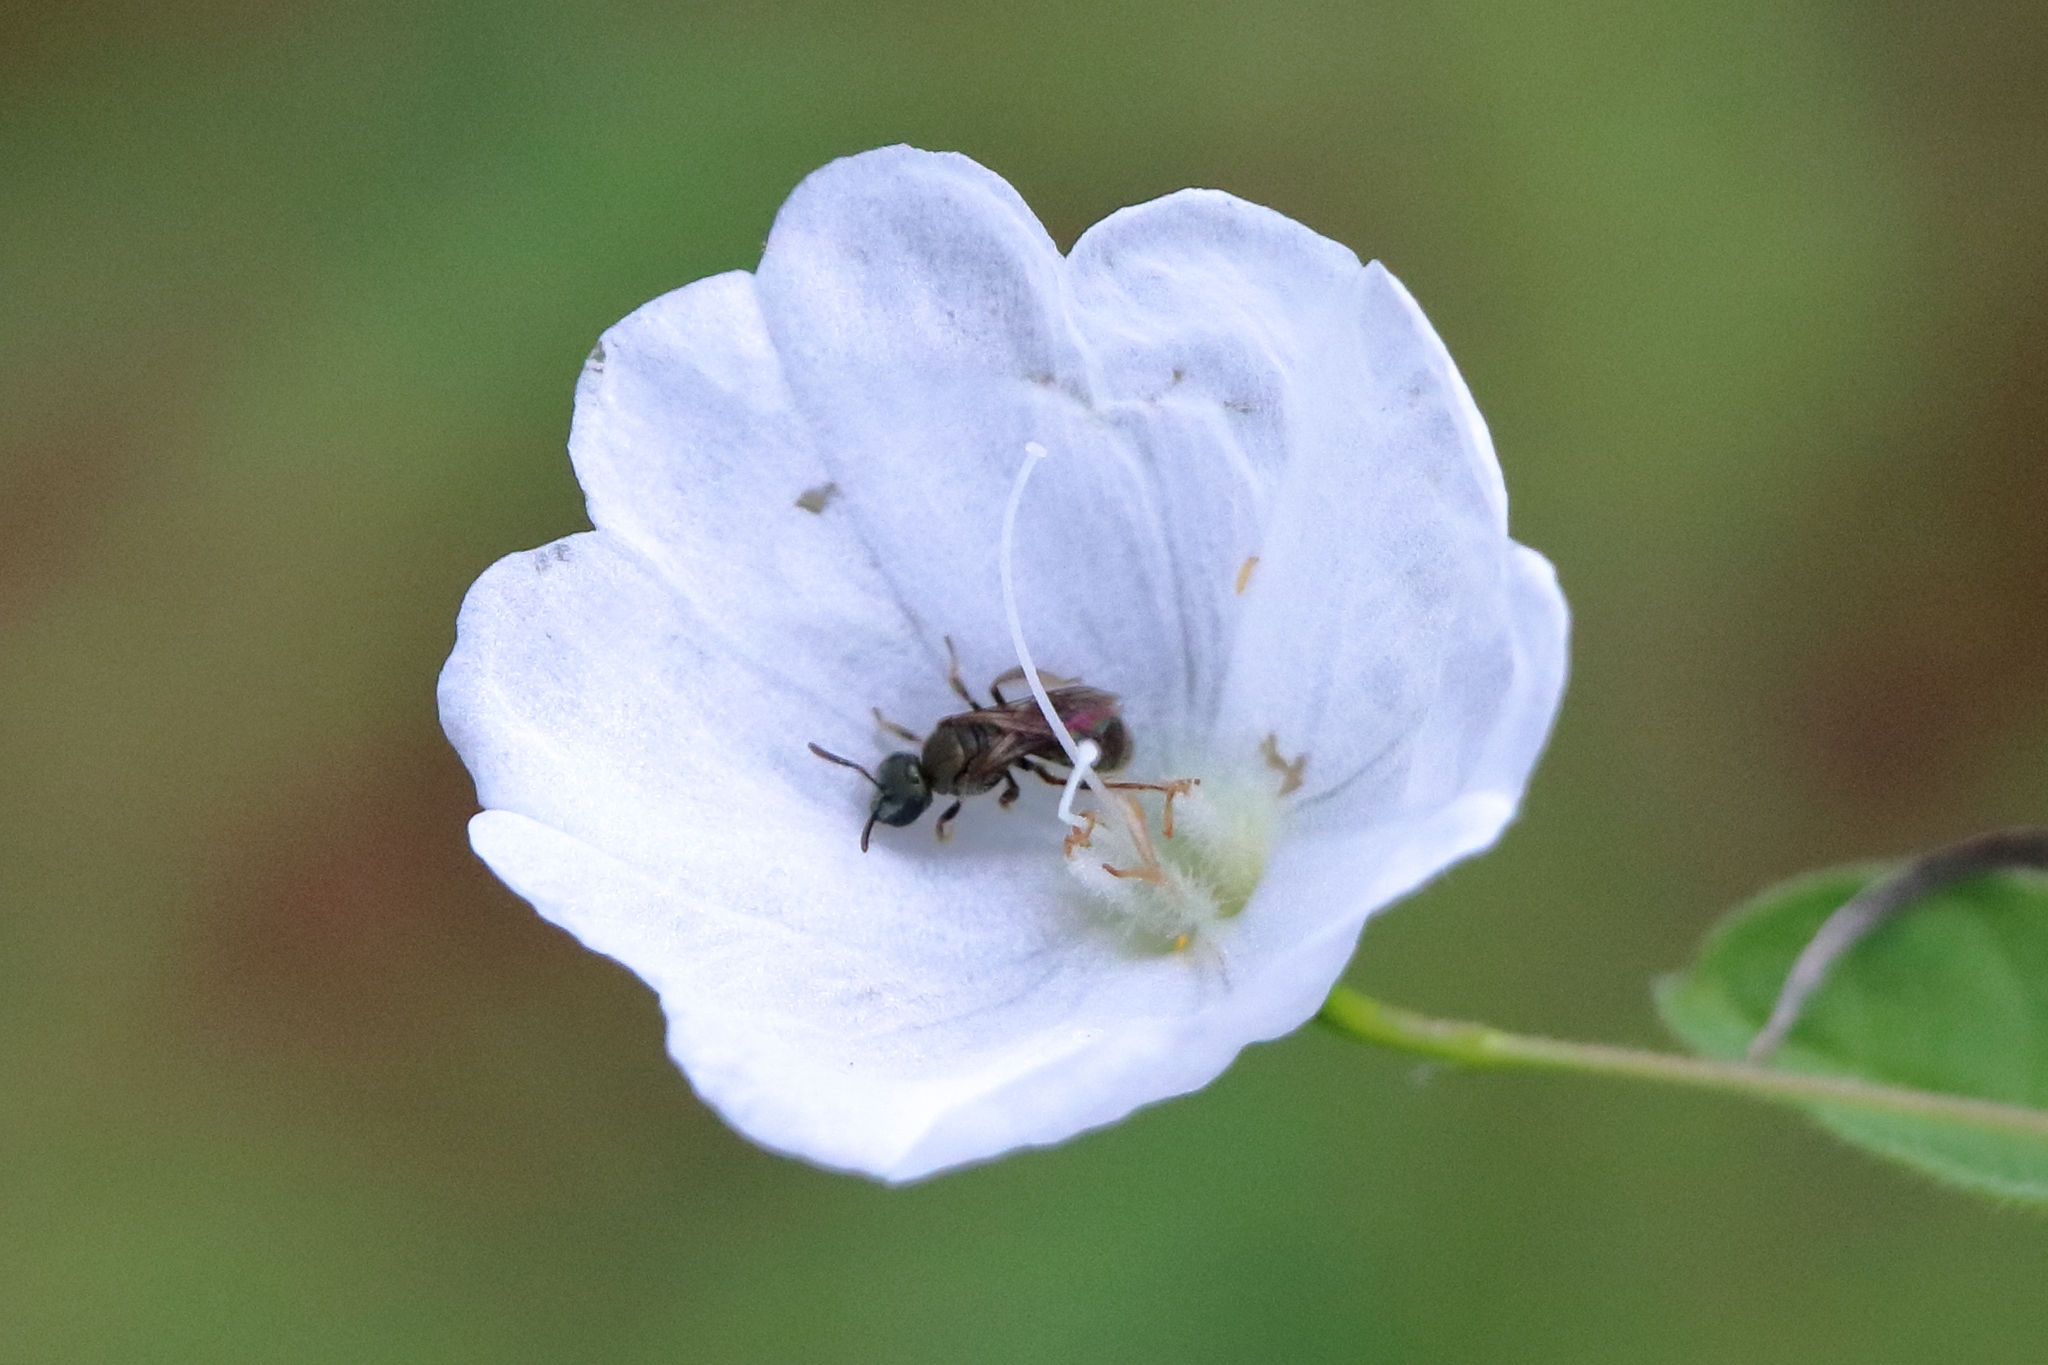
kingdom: Animalia
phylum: Arthropoda
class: Insecta
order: Hymenoptera
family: Halictidae
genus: Dialictus
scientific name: Dialictus
